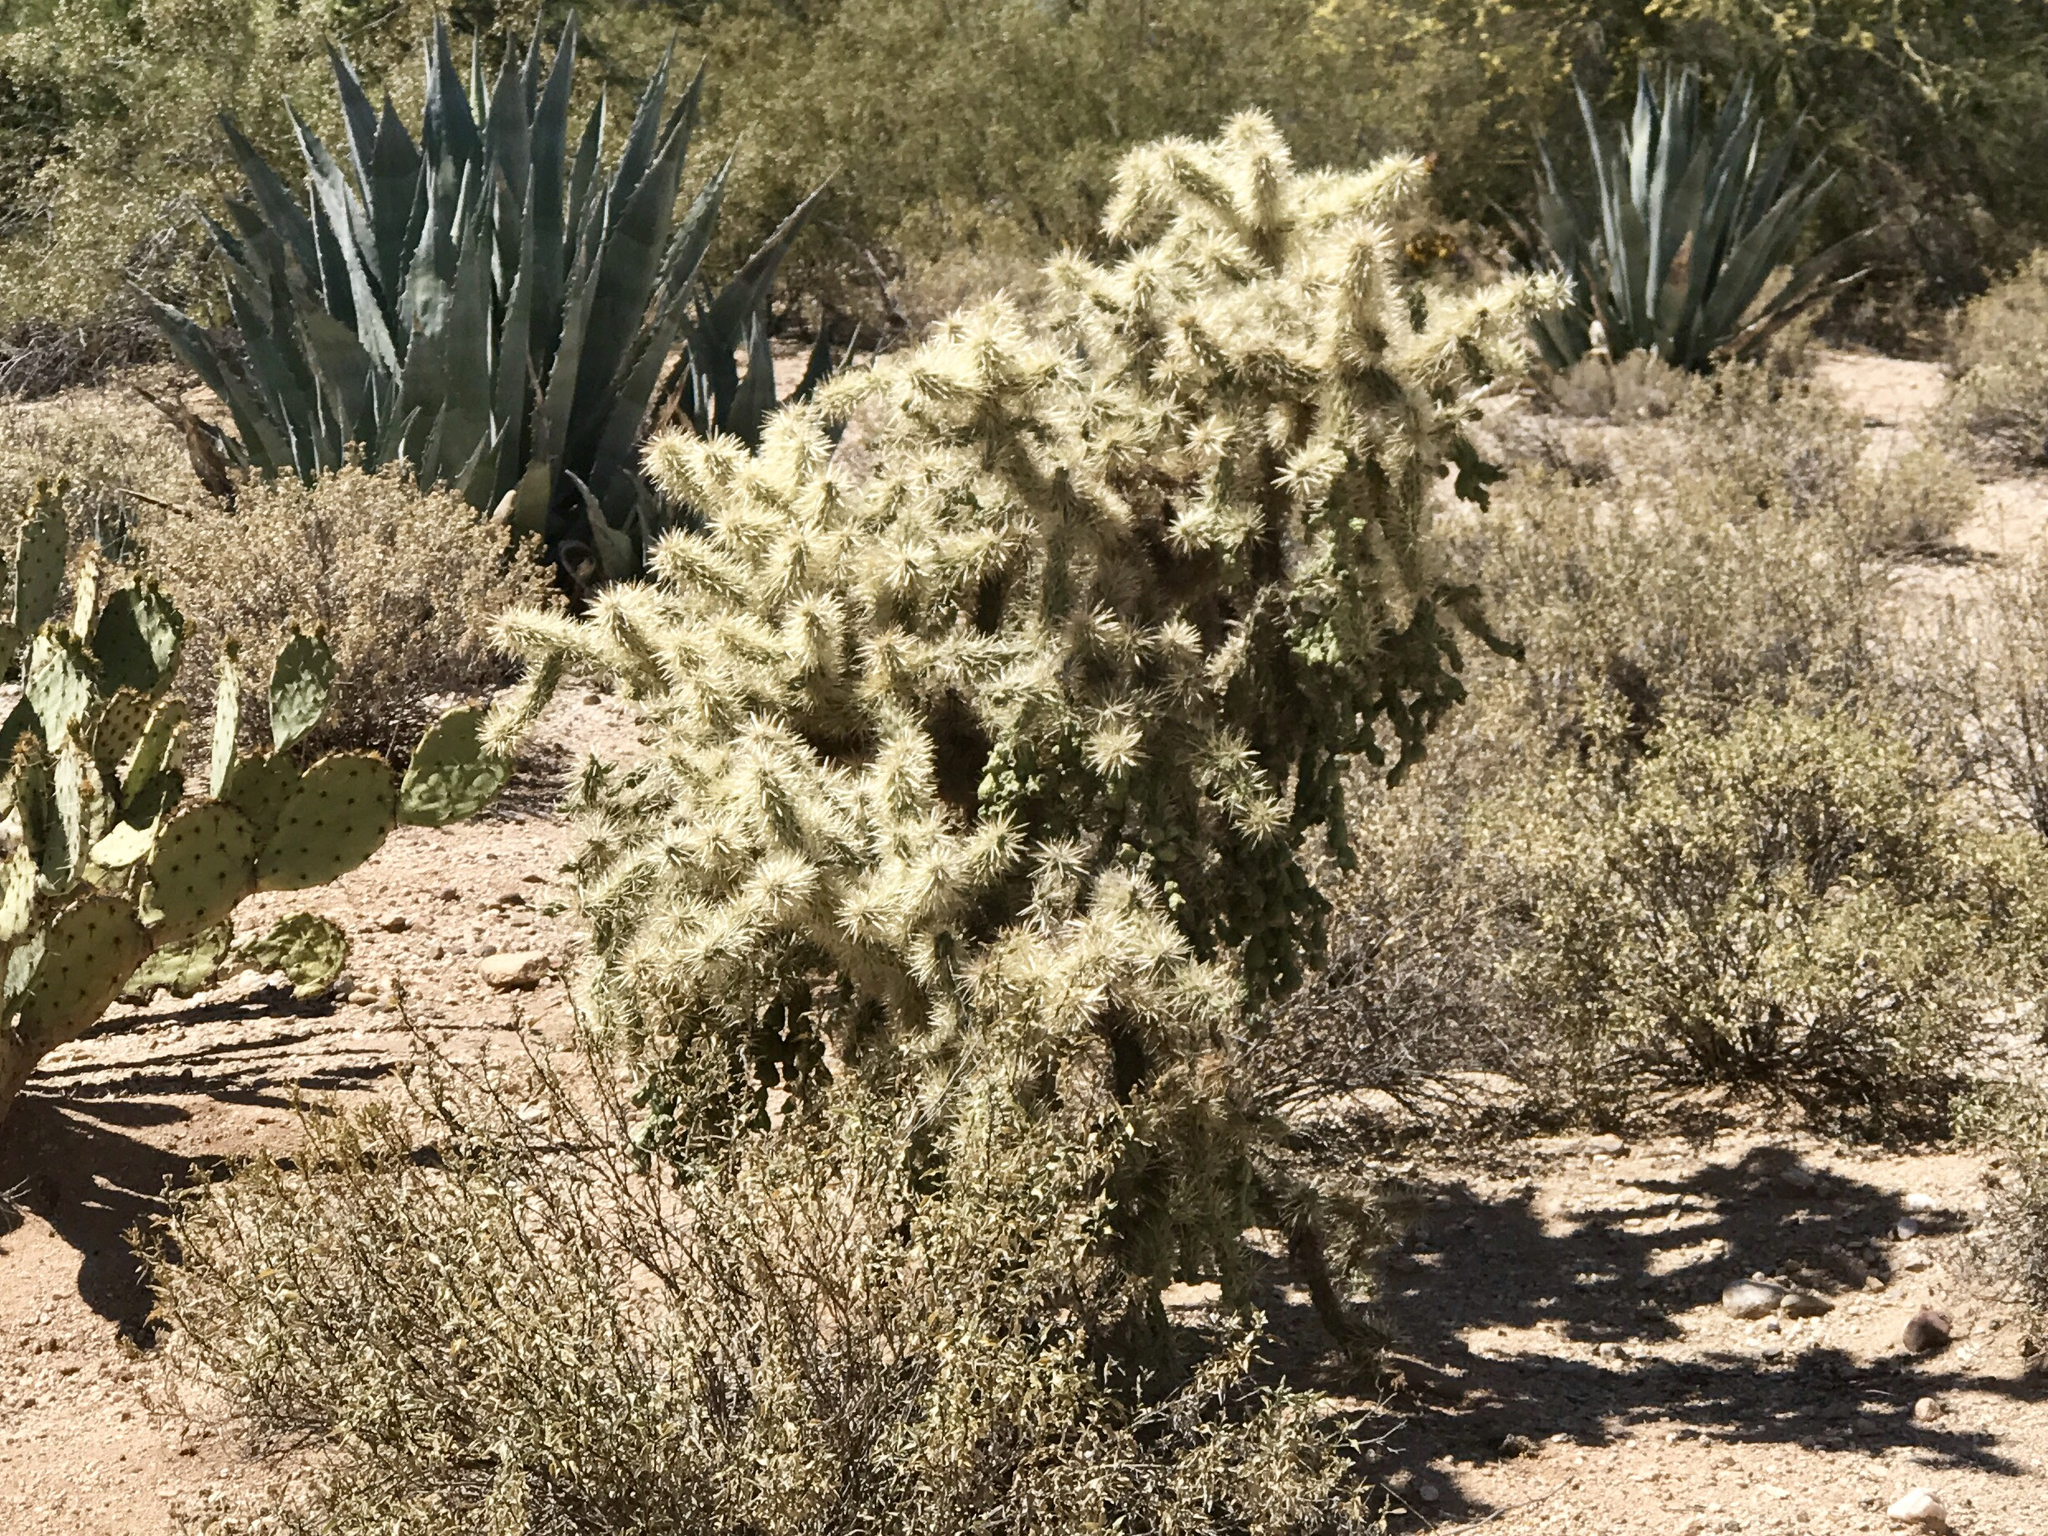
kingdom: Plantae
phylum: Tracheophyta
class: Magnoliopsida
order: Caryophyllales
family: Cactaceae
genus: Cylindropuntia
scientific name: Cylindropuntia fulgida
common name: Jumping cholla
